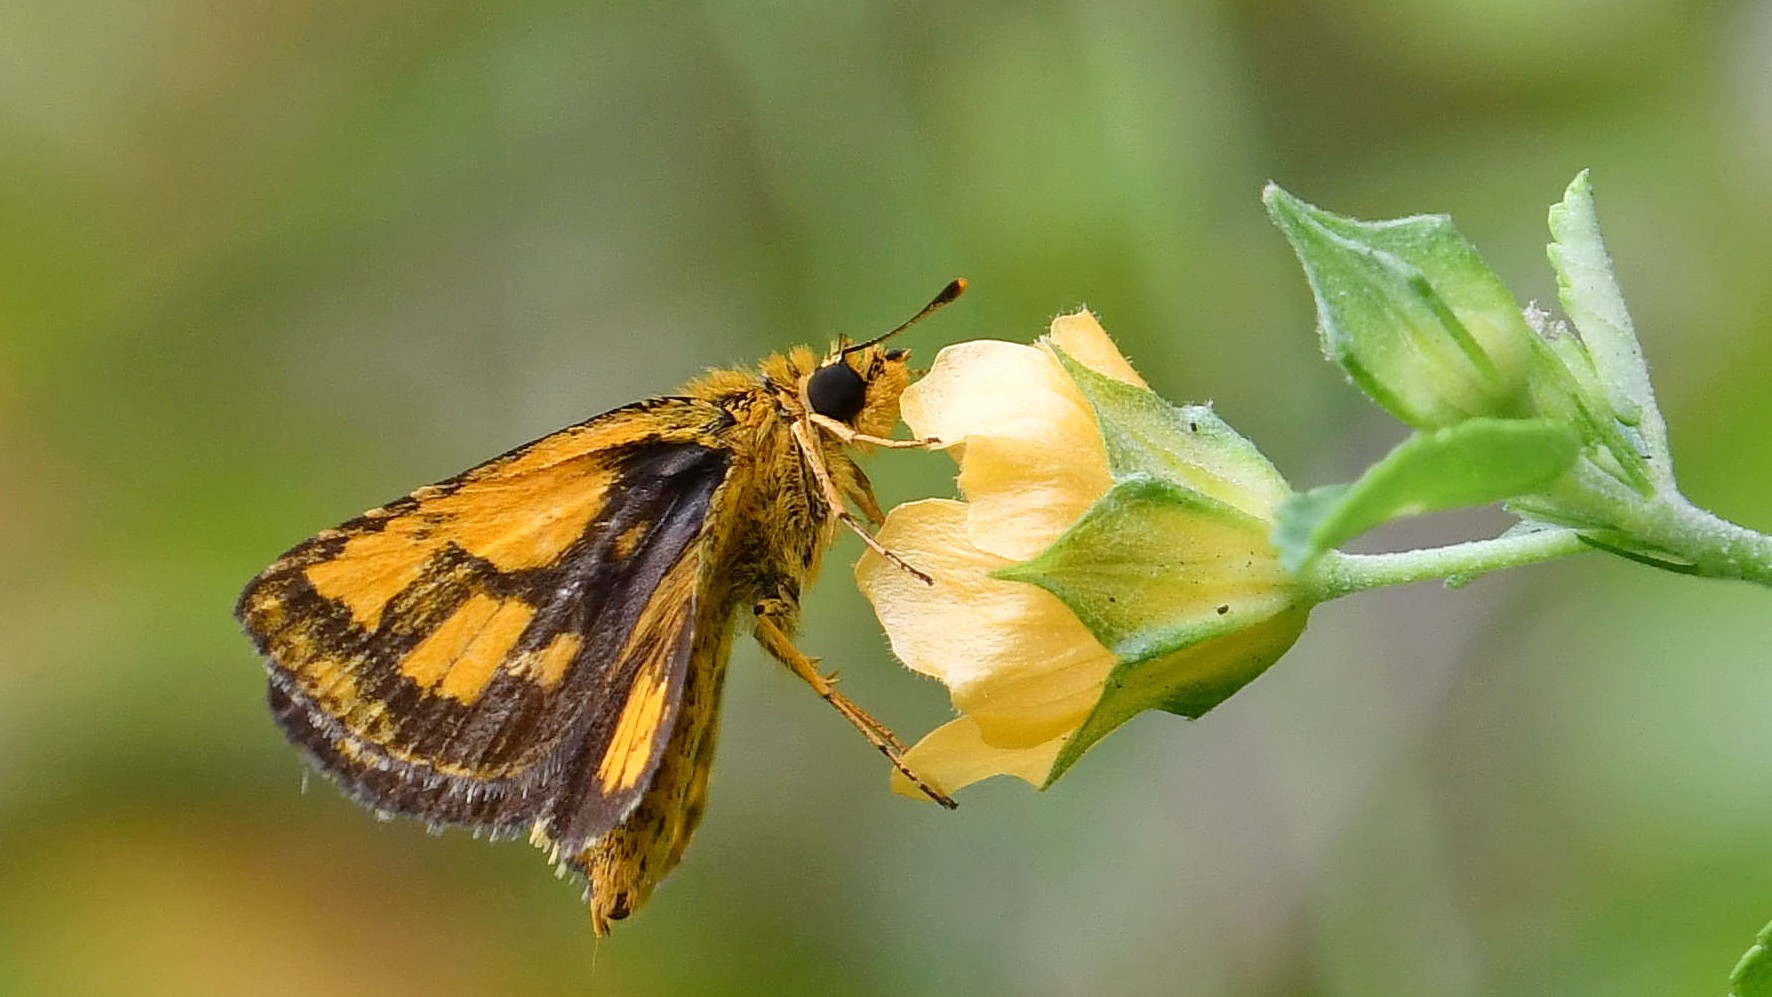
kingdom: Animalia
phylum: Arthropoda
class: Insecta
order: Lepidoptera
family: Hesperiidae
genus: Ampittia
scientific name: Ampittia dioscorides
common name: Common bush hopper
